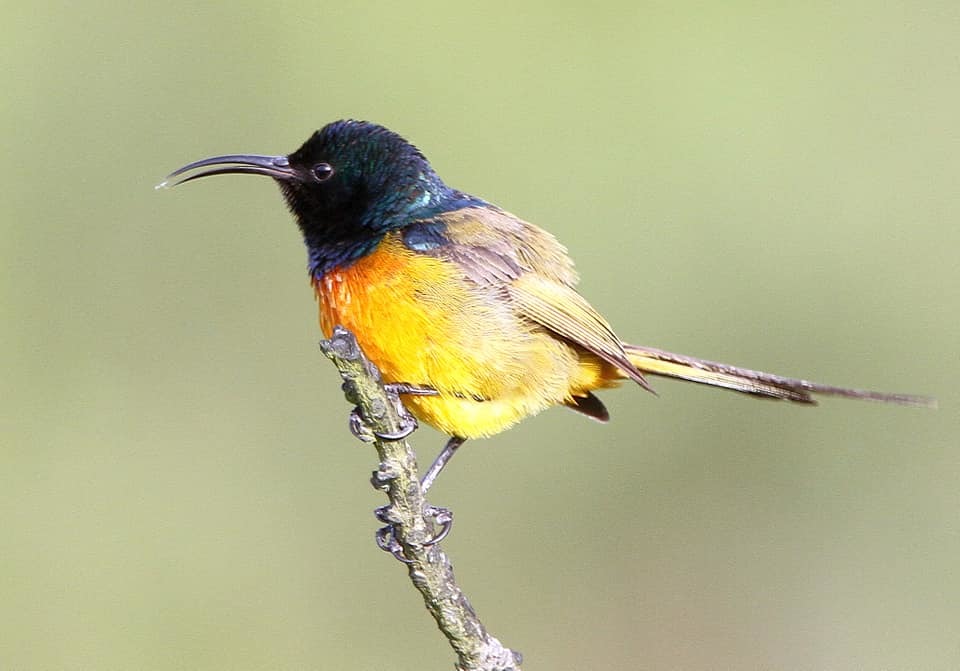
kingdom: Animalia
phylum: Chordata
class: Aves
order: Passeriformes
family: Nectariniidae
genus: Anthobaphes
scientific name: Anthobaphes violacea
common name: Orange-breasted sunbird
